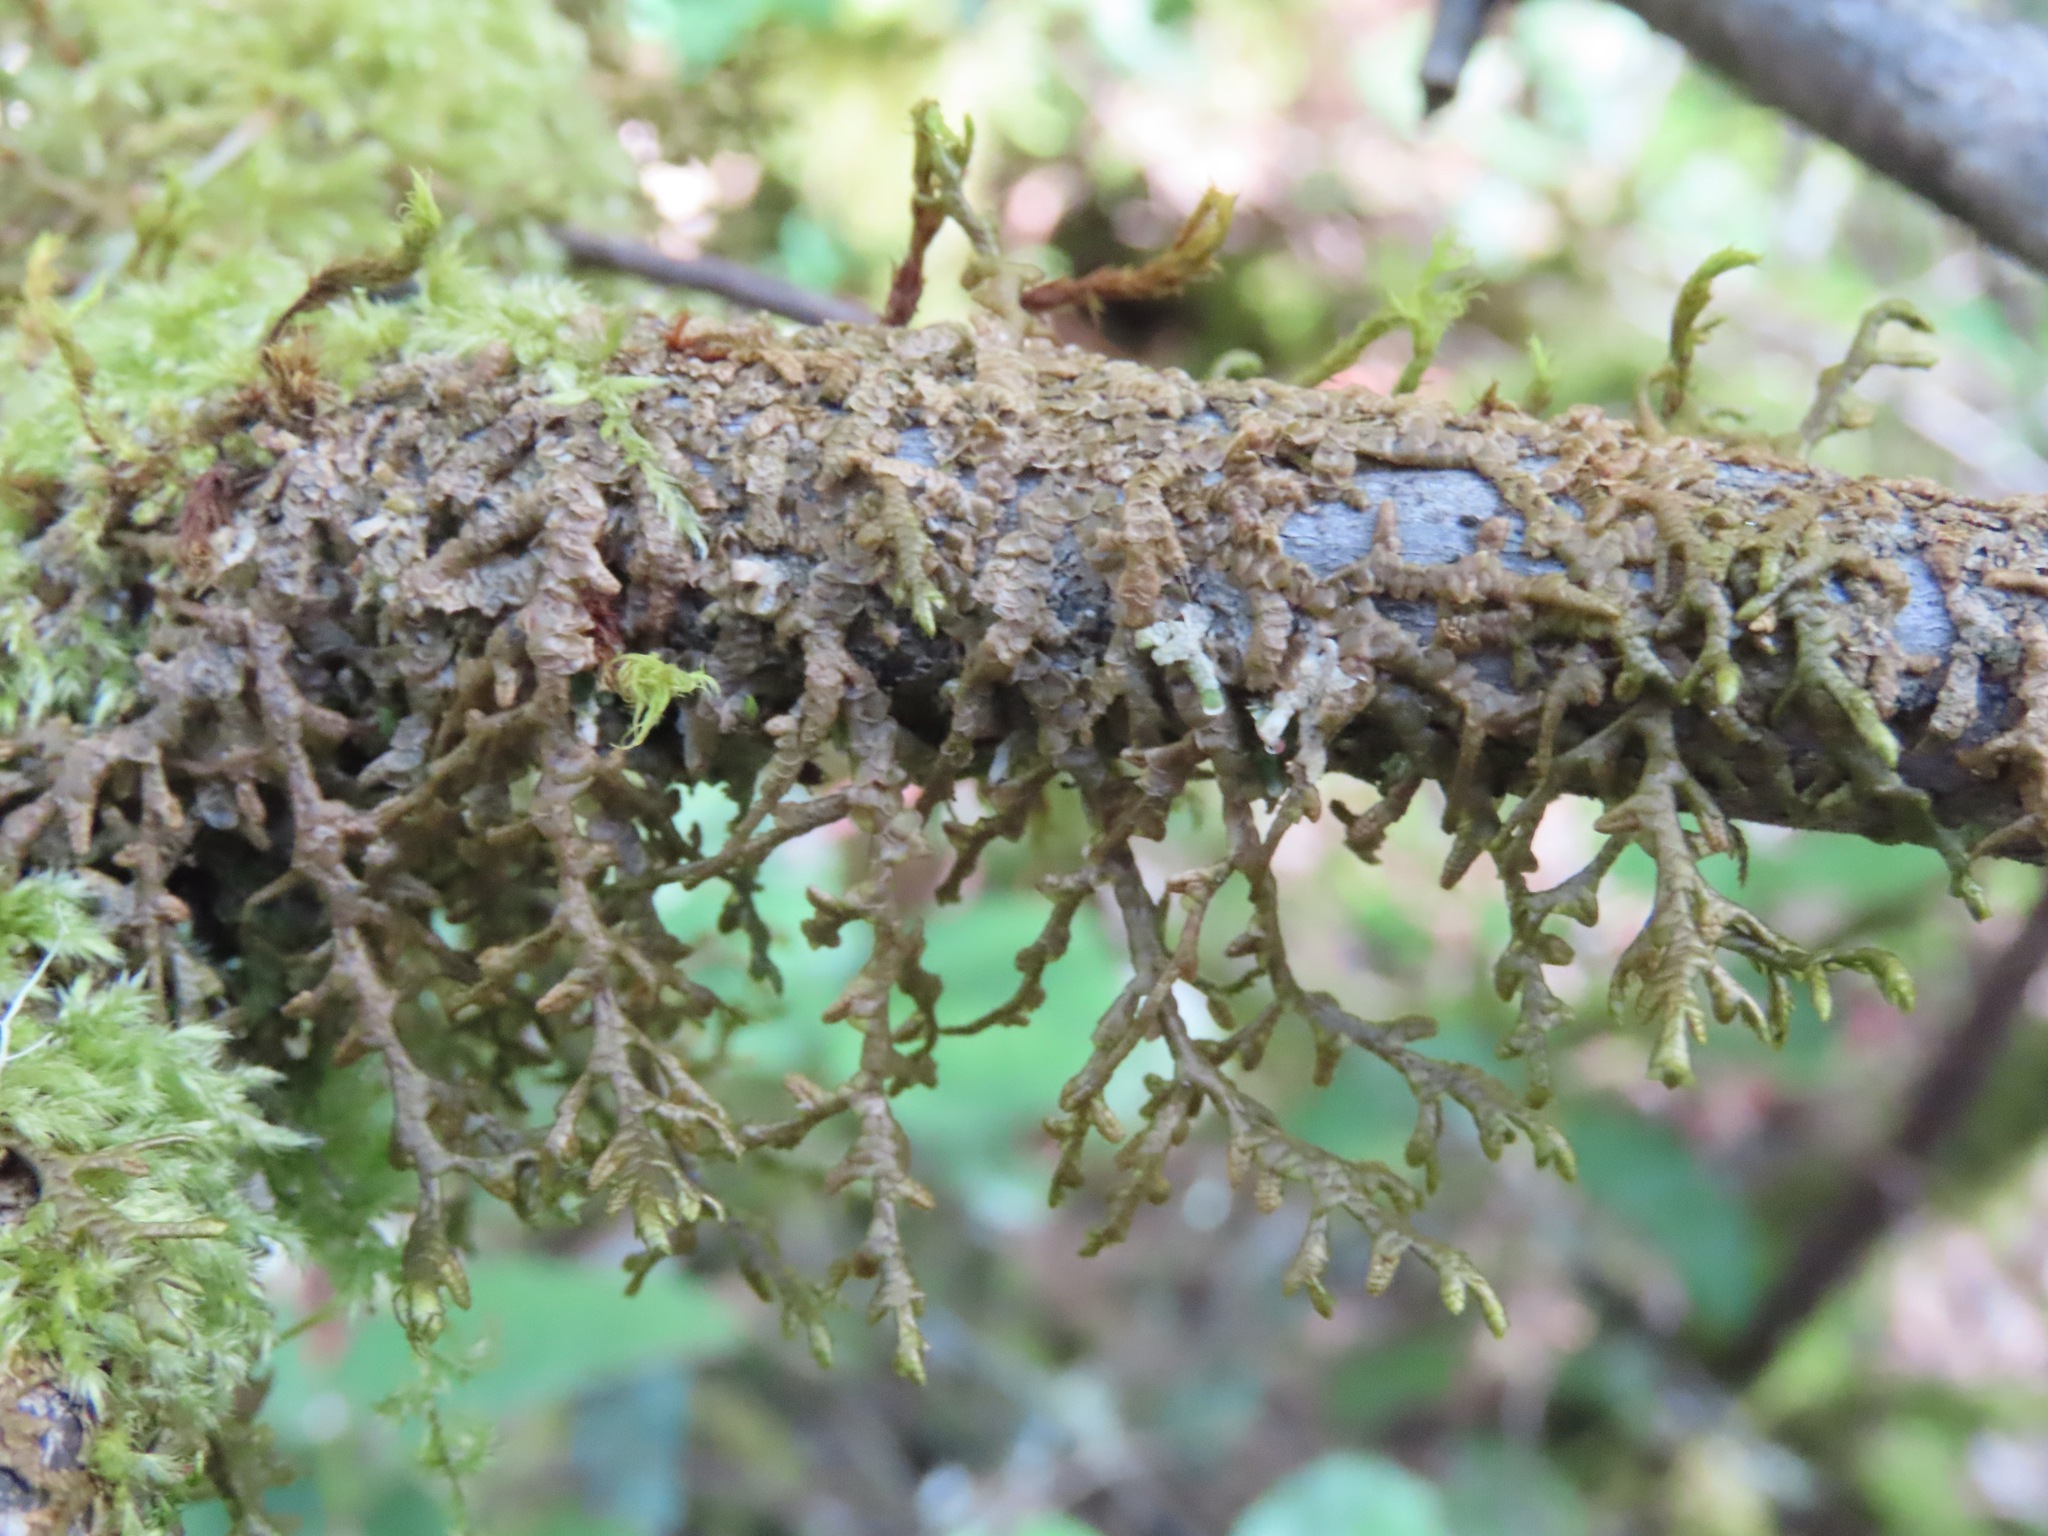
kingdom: Plantae
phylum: Marchantiophyta
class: Jungermanniopsida
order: Porellales
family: Porellaceae
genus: Porella
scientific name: Porella navicularis
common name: Tree ruffle liverwort
